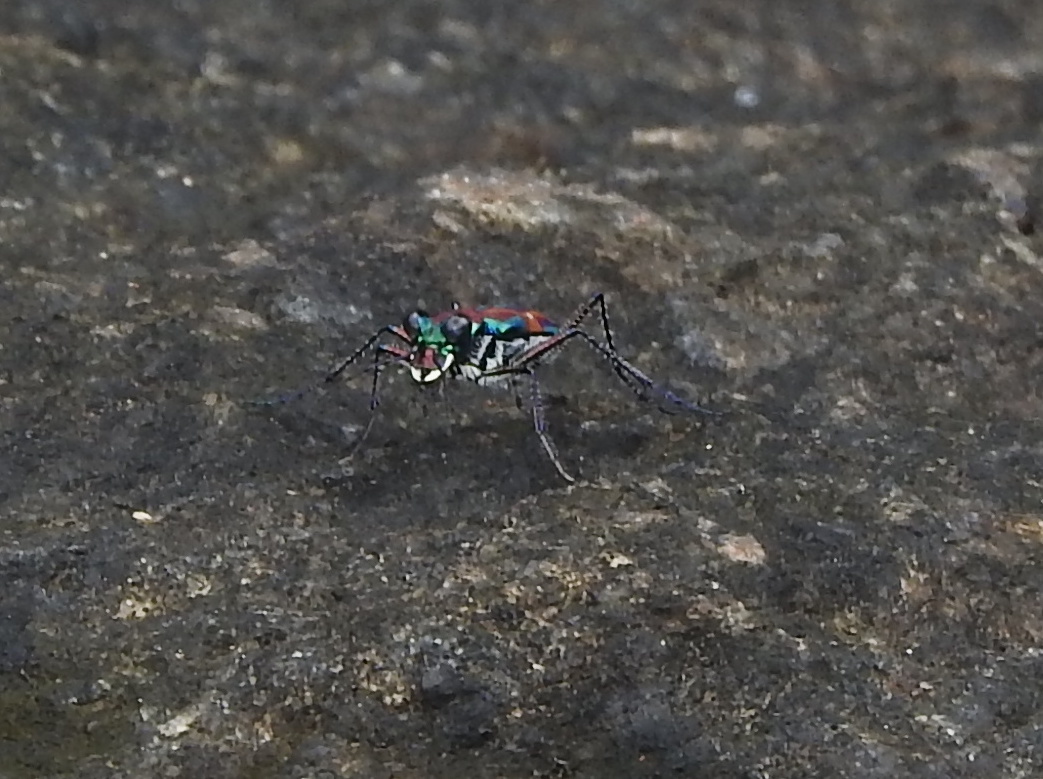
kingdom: Animalia
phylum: Arthropoda
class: Insecta
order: Coleoptera
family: Carabidae
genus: Jansenia
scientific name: Jansenia rugosiceps
